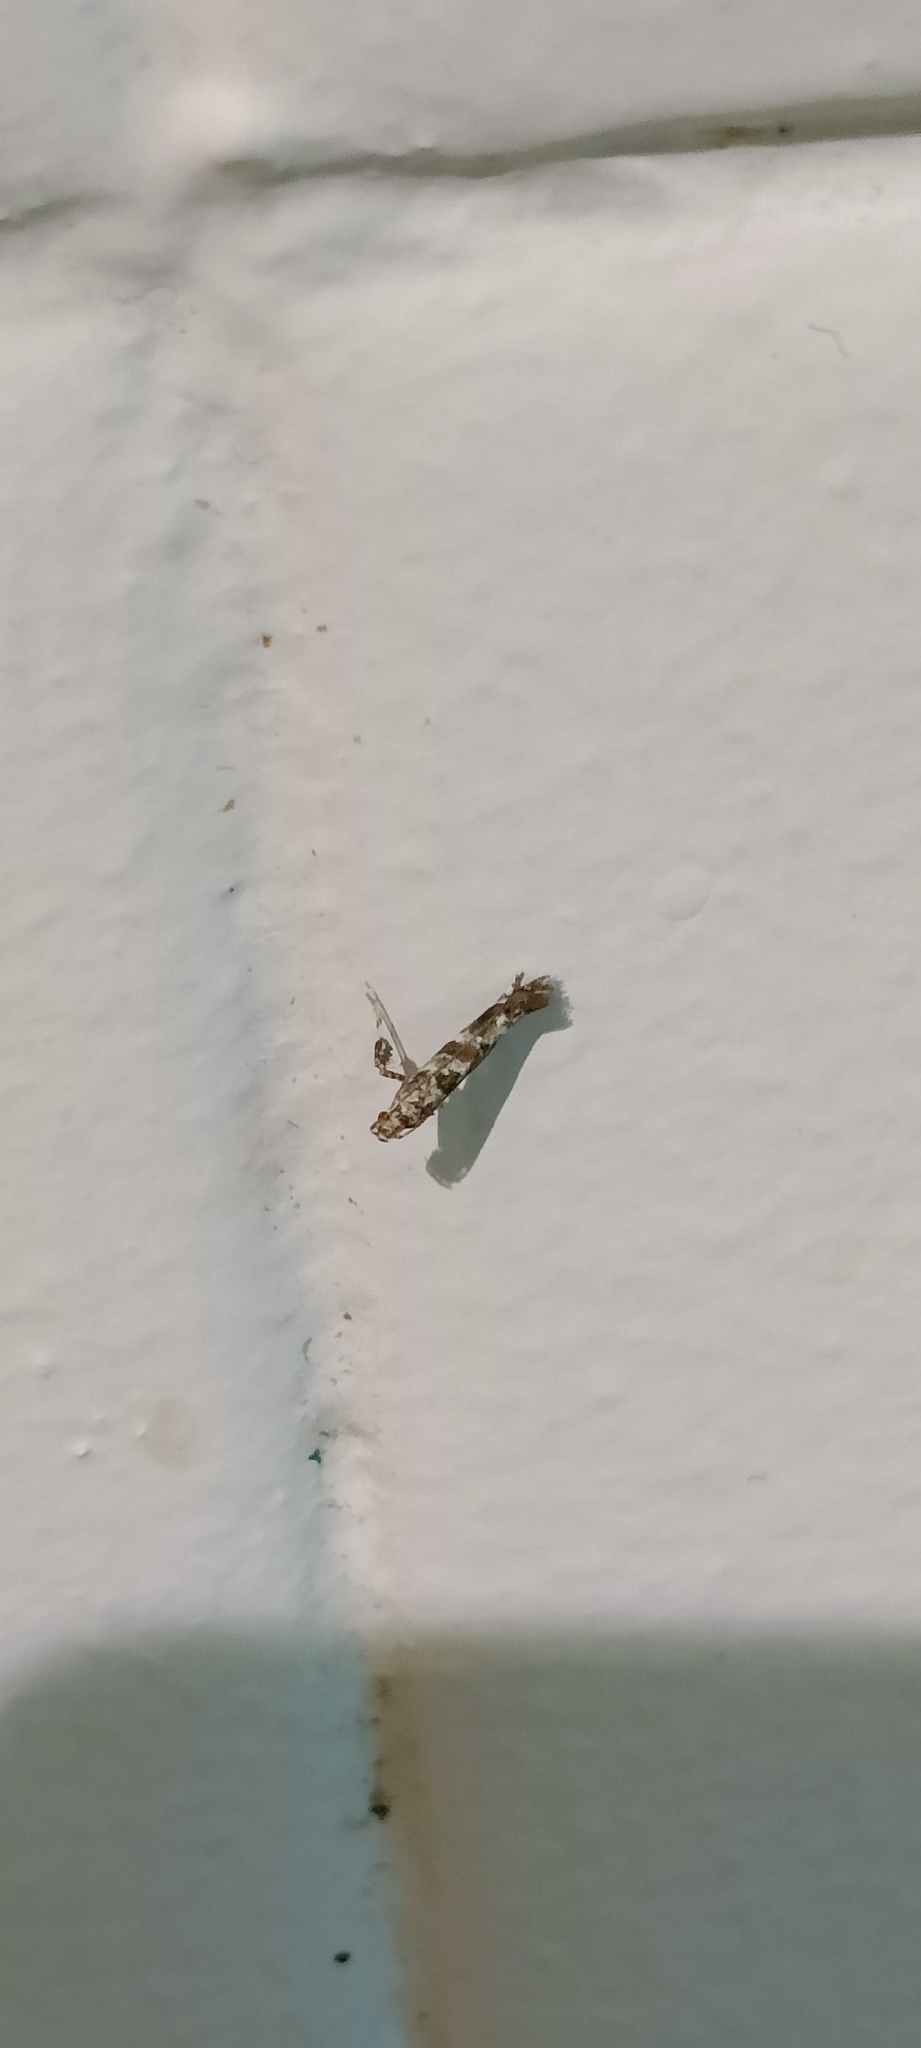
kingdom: Animalia
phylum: Arthropoda
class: Insecta
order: Lepidoptera
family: Gracillariidae
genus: Gracillaria
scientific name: Gracillaria syringella
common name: Common slender
